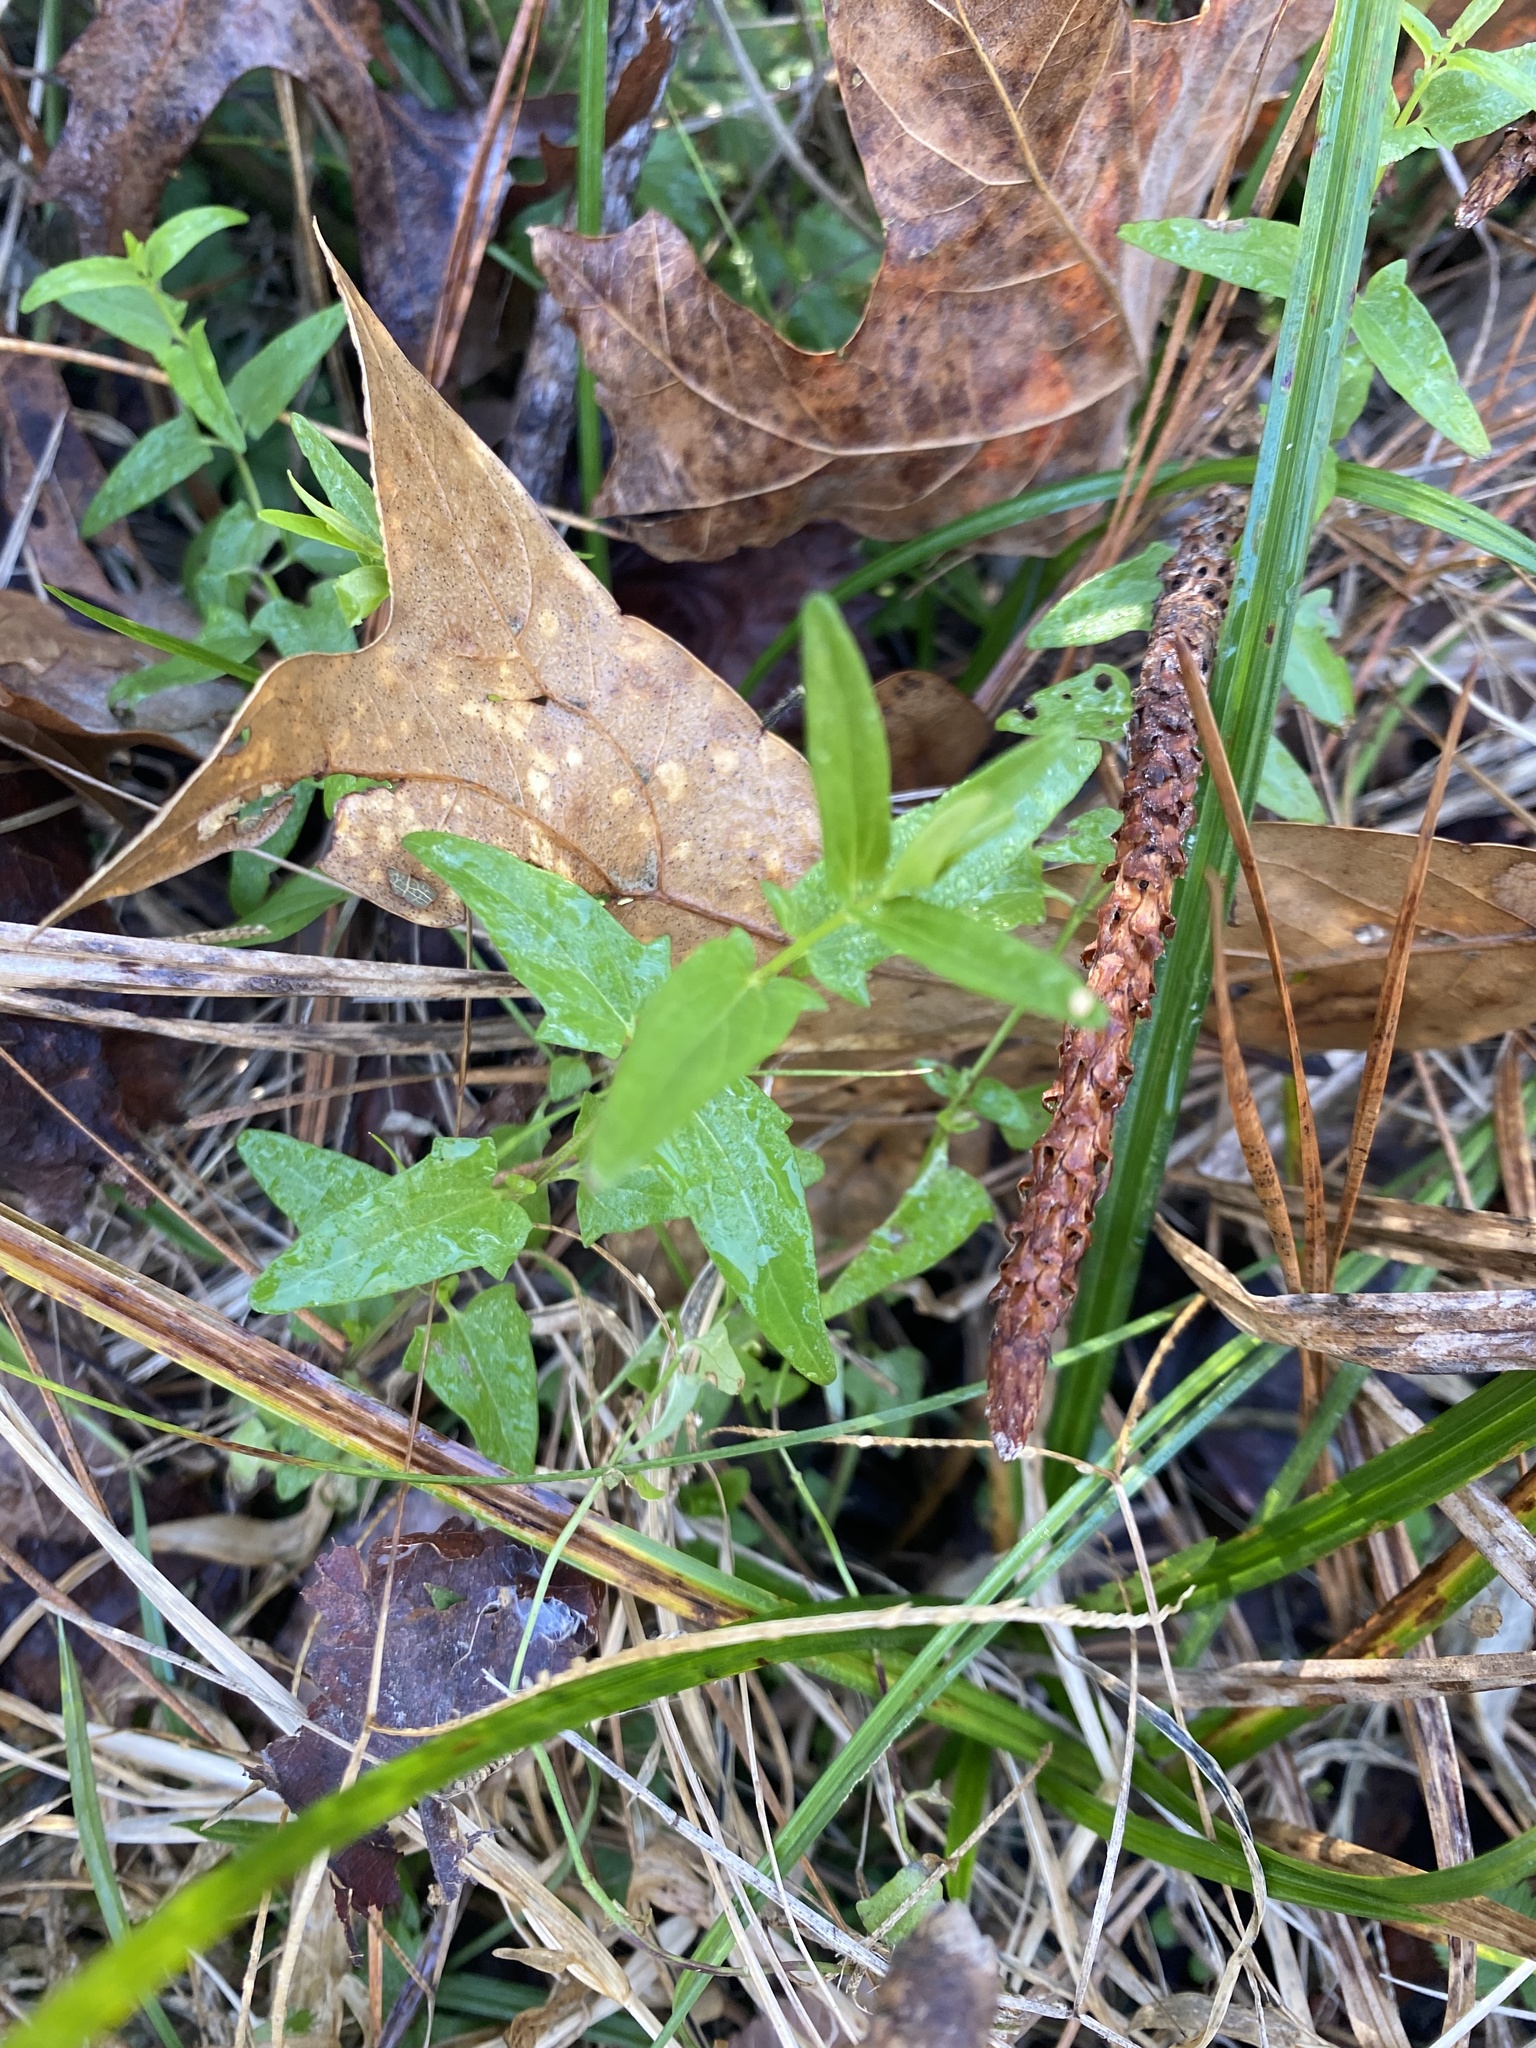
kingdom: Plantae
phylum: Tracheophyta
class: Magnoliopsida
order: Lamiales
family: Lamiaceae
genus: Scutellaria
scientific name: Scutellaria racemosa
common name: South american skullcap
